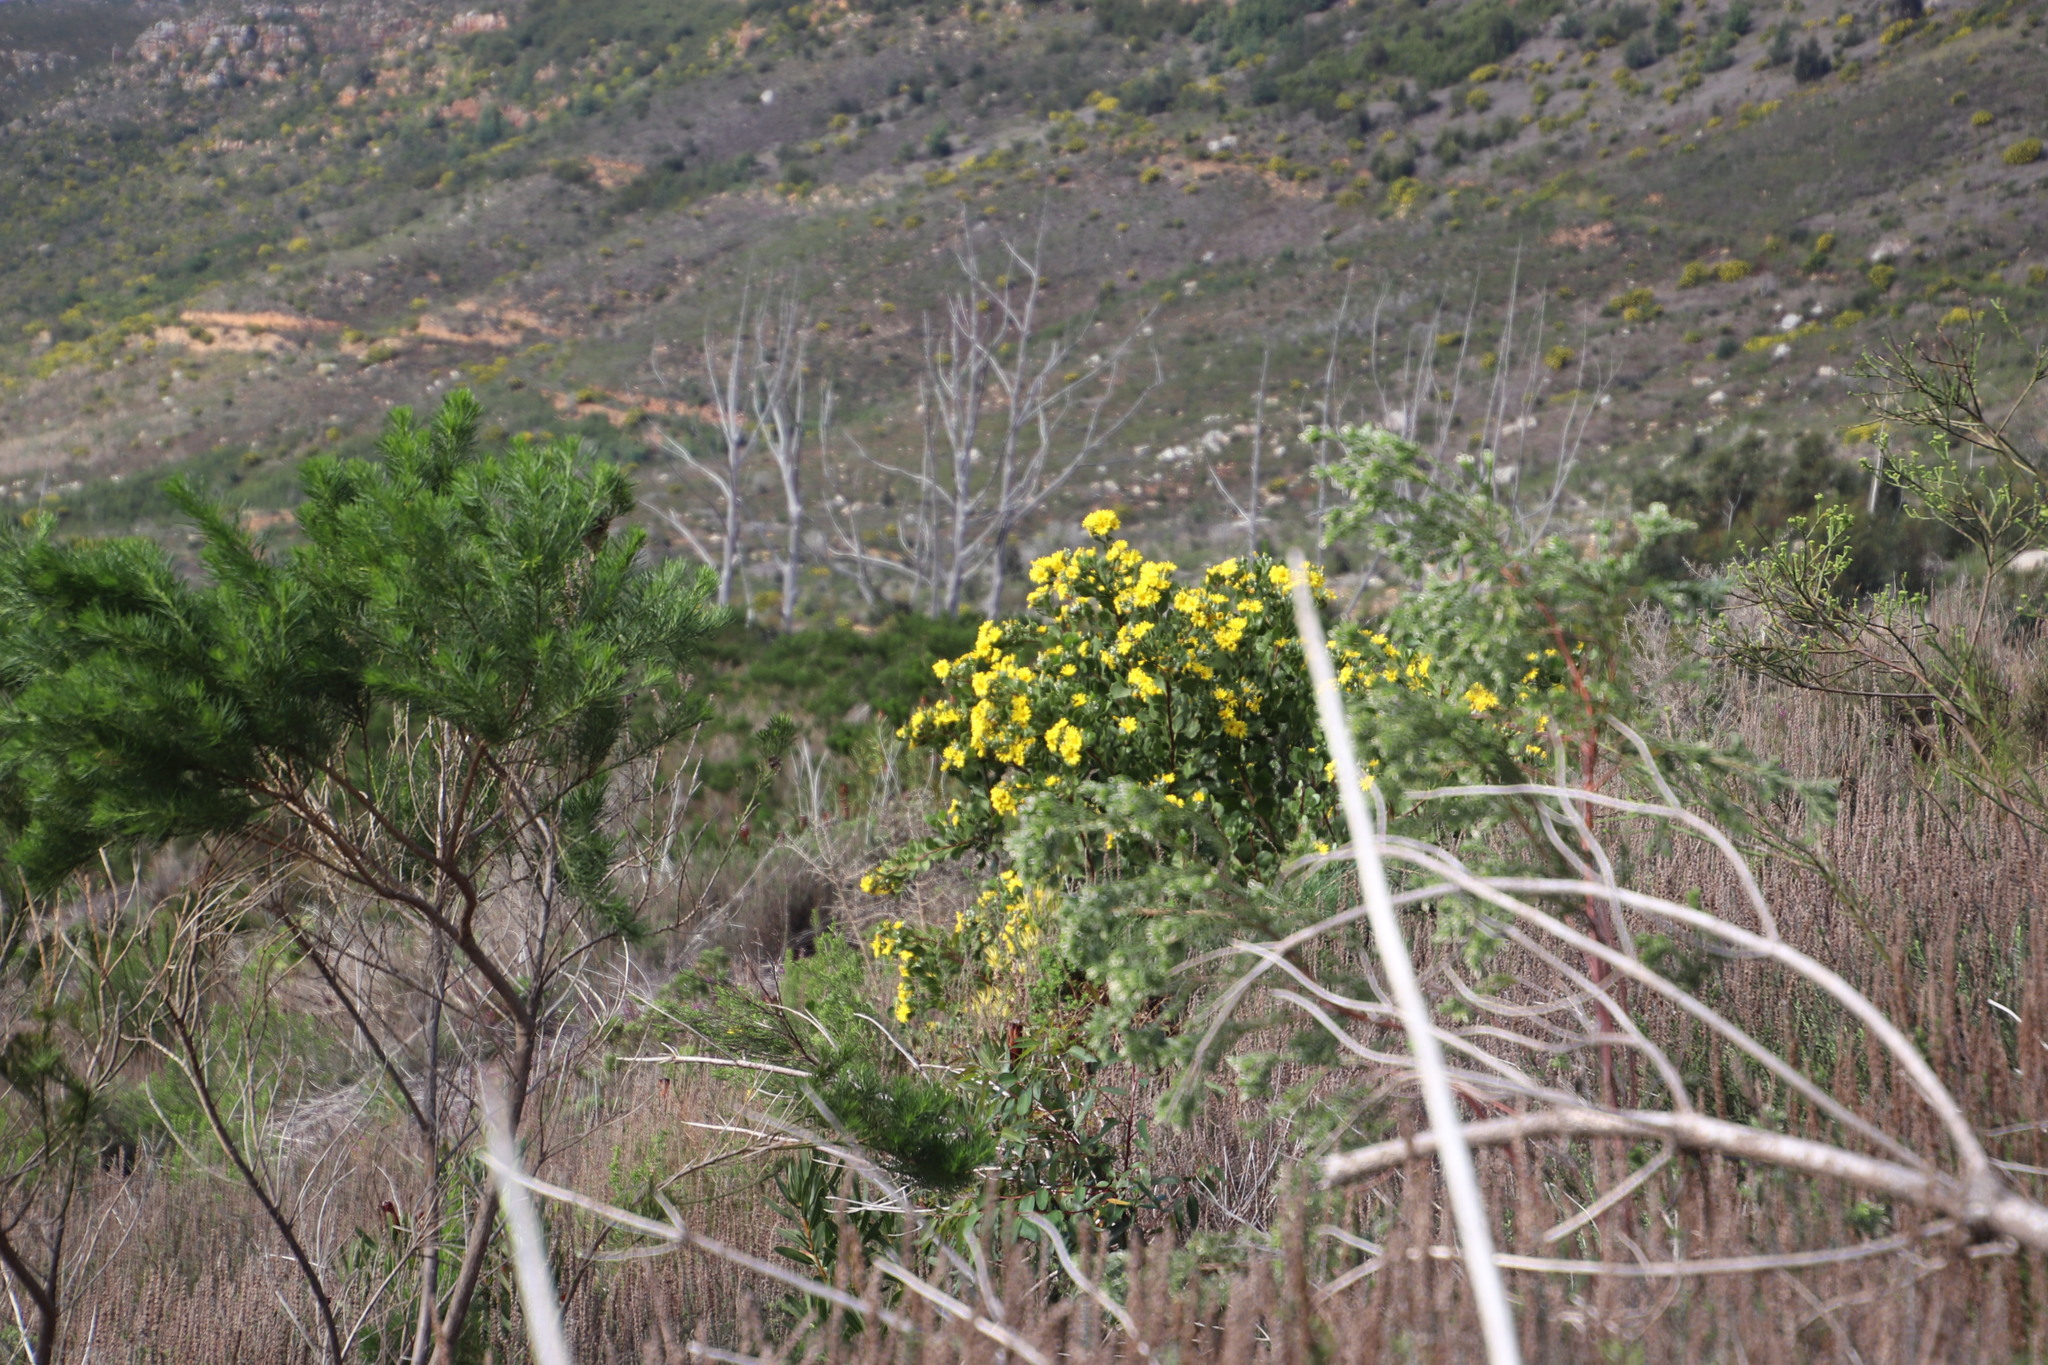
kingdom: Plantae
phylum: Tracheophyta
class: Magnoliopsida
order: Asterales
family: Asteraceae
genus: Osteospermum
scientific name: Osteospermum moniliferum
